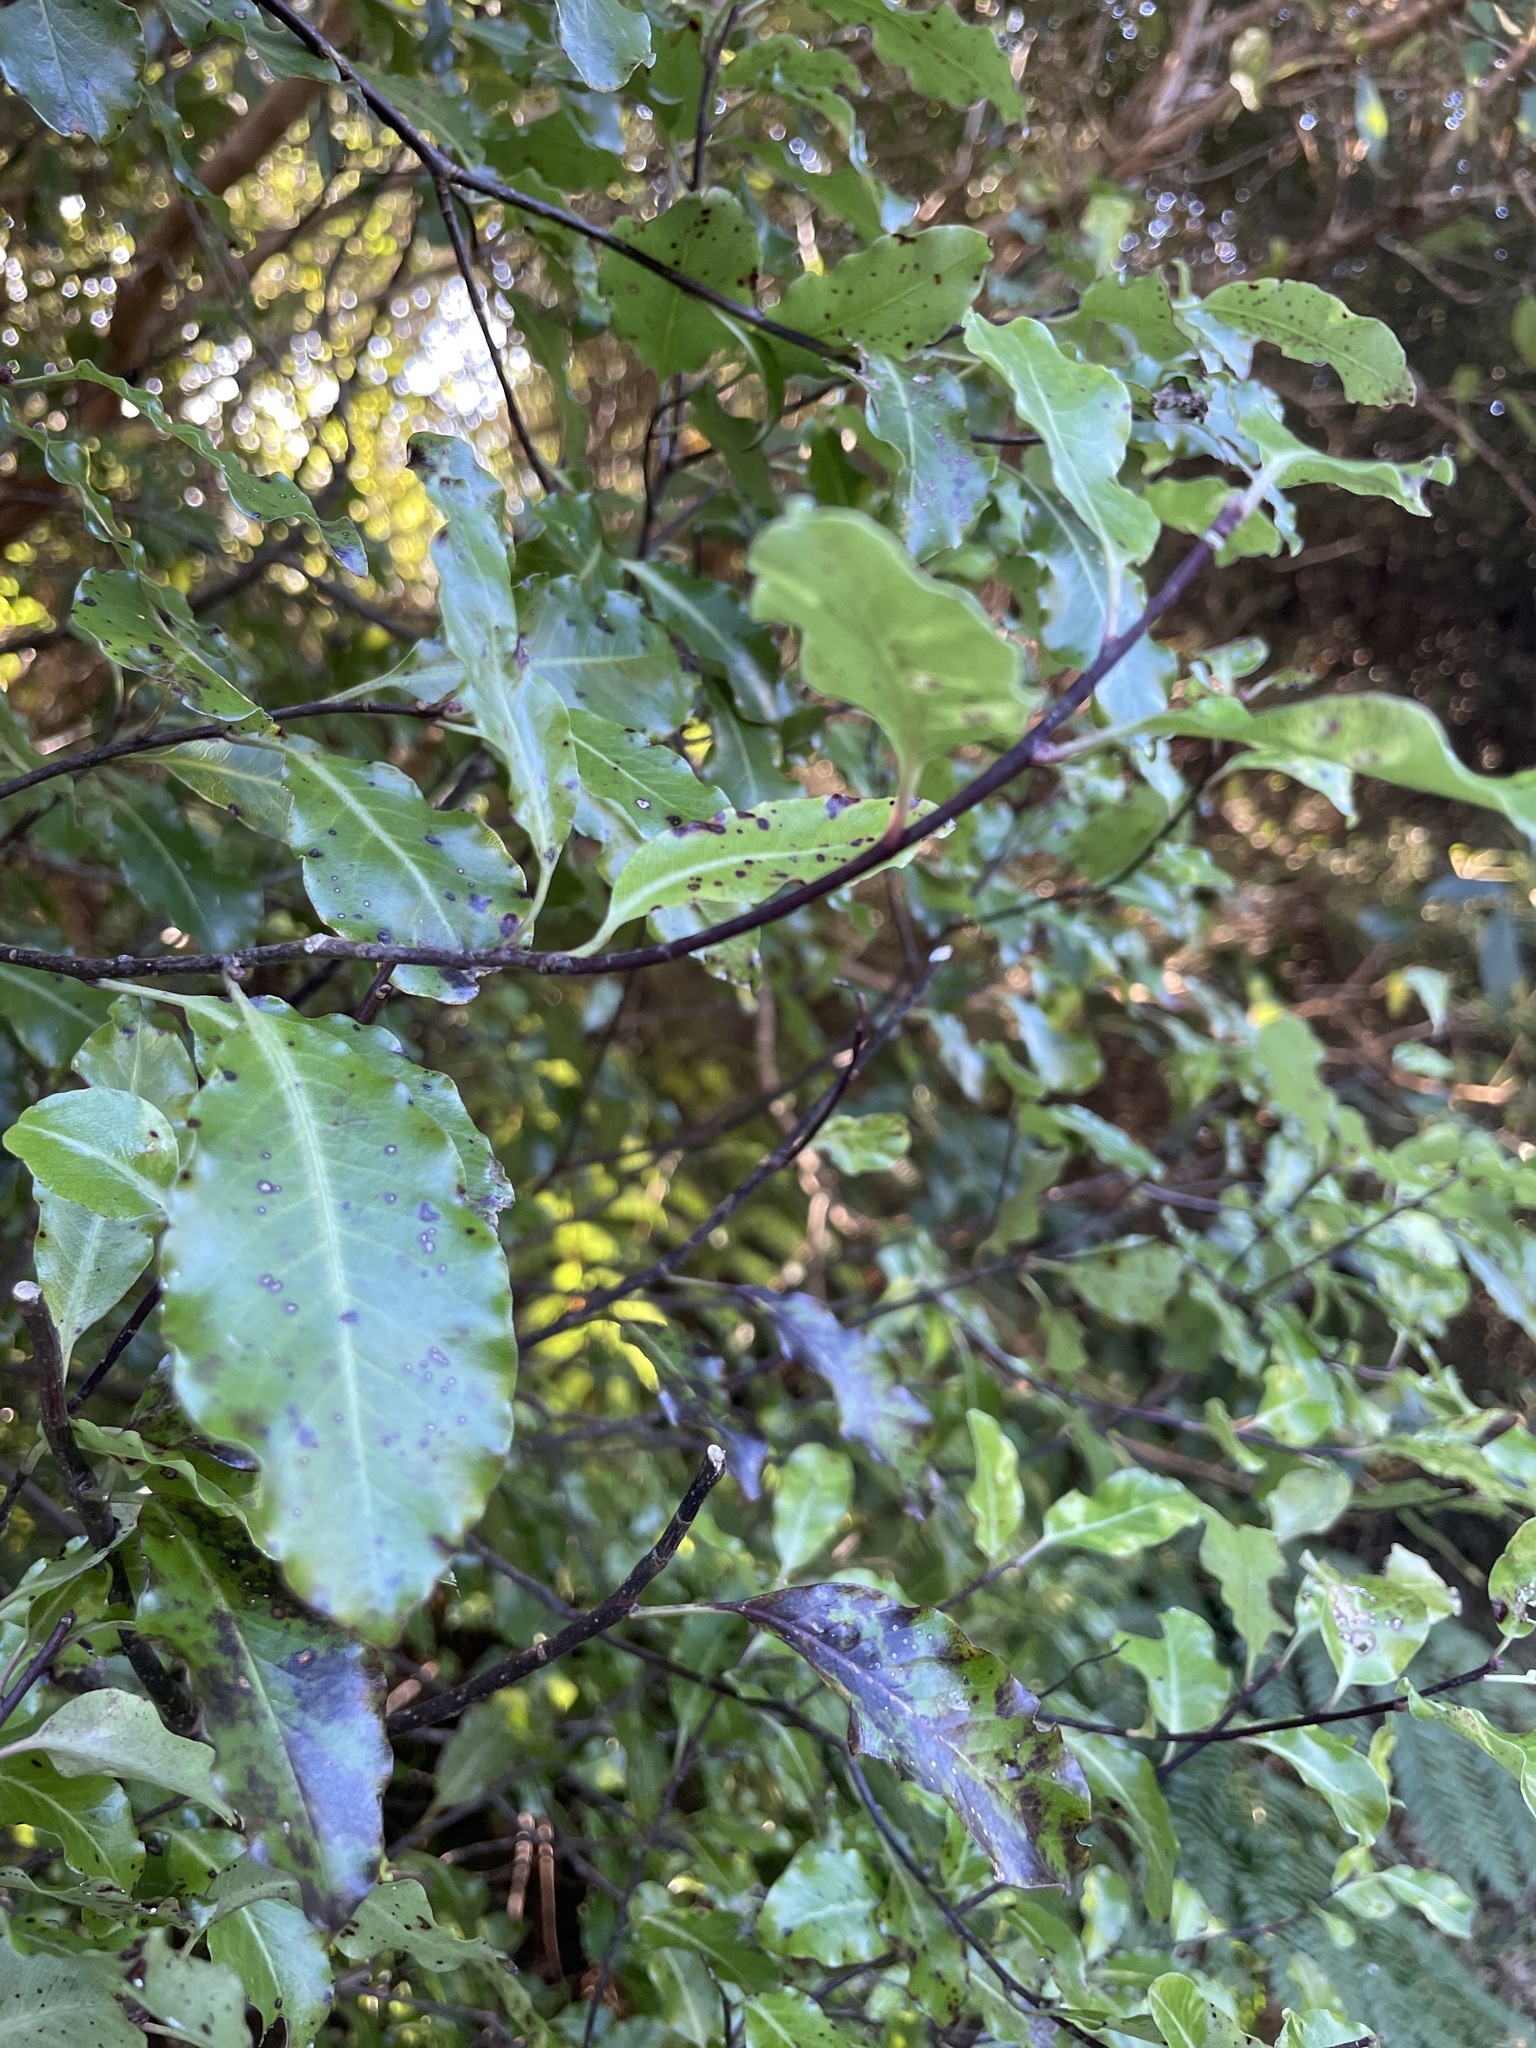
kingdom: Plantae
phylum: Tracheophyta
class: Magnoliopsida
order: Apiales
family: Pittosporaceae
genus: Pittosporum
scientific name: Pittosporum tenuifolium
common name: Kohuhu
